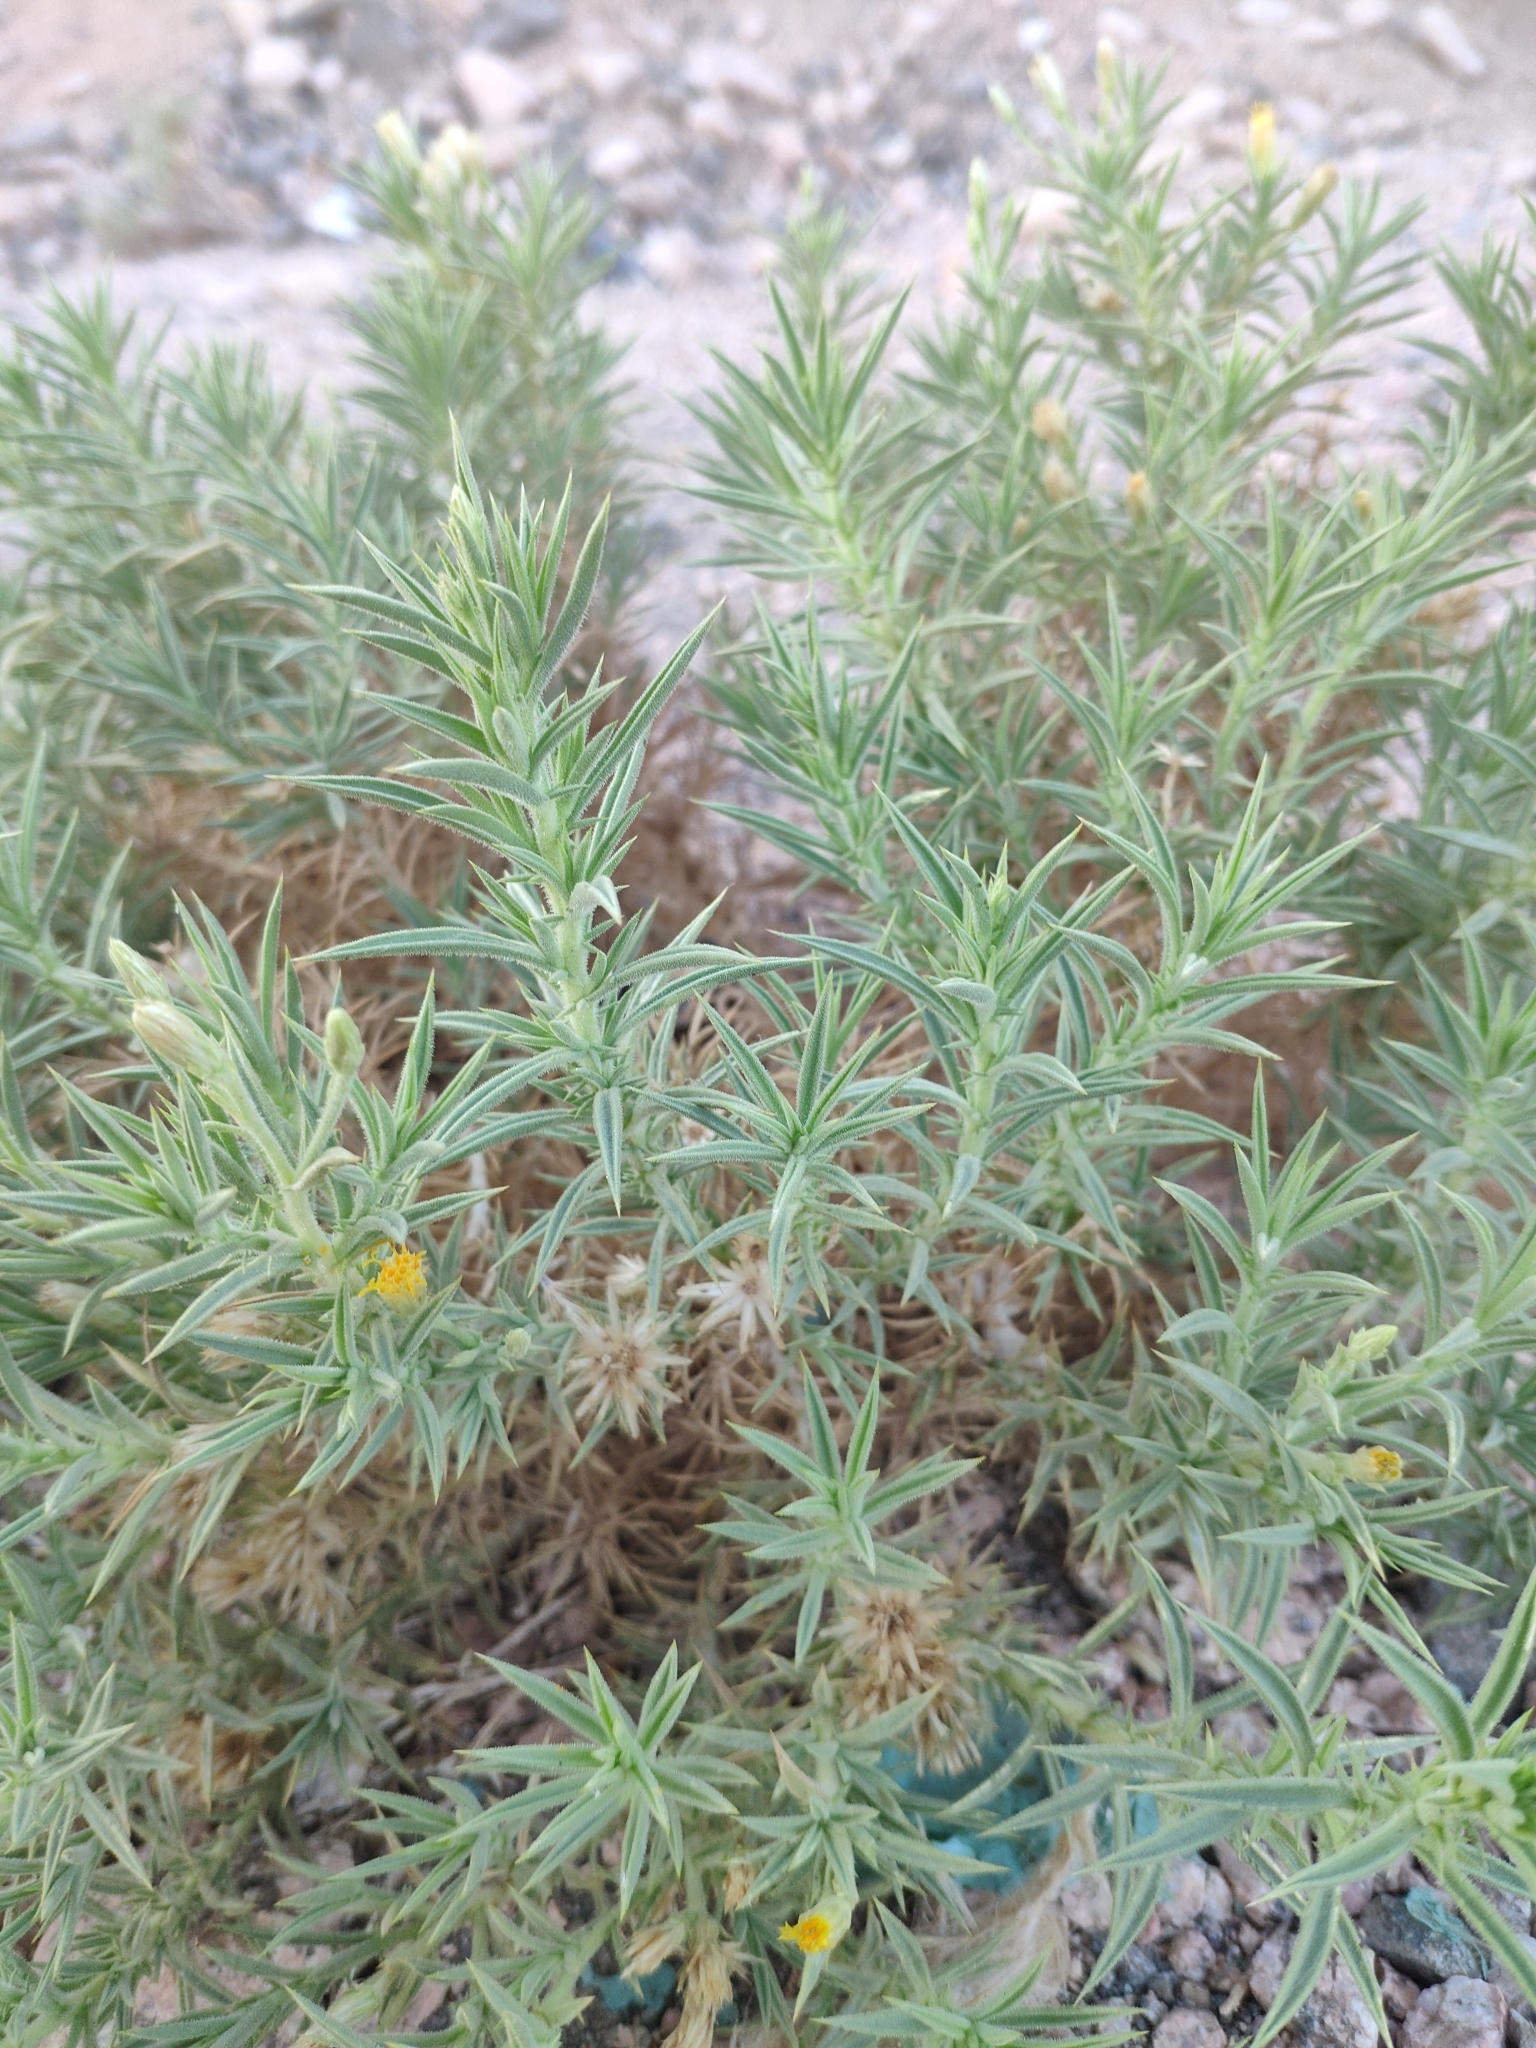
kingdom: Plantae
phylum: Tracheophyta
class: Magnoliopsida
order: Asterales
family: Asteraceae
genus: Iphiona
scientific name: Iphiona scabra
